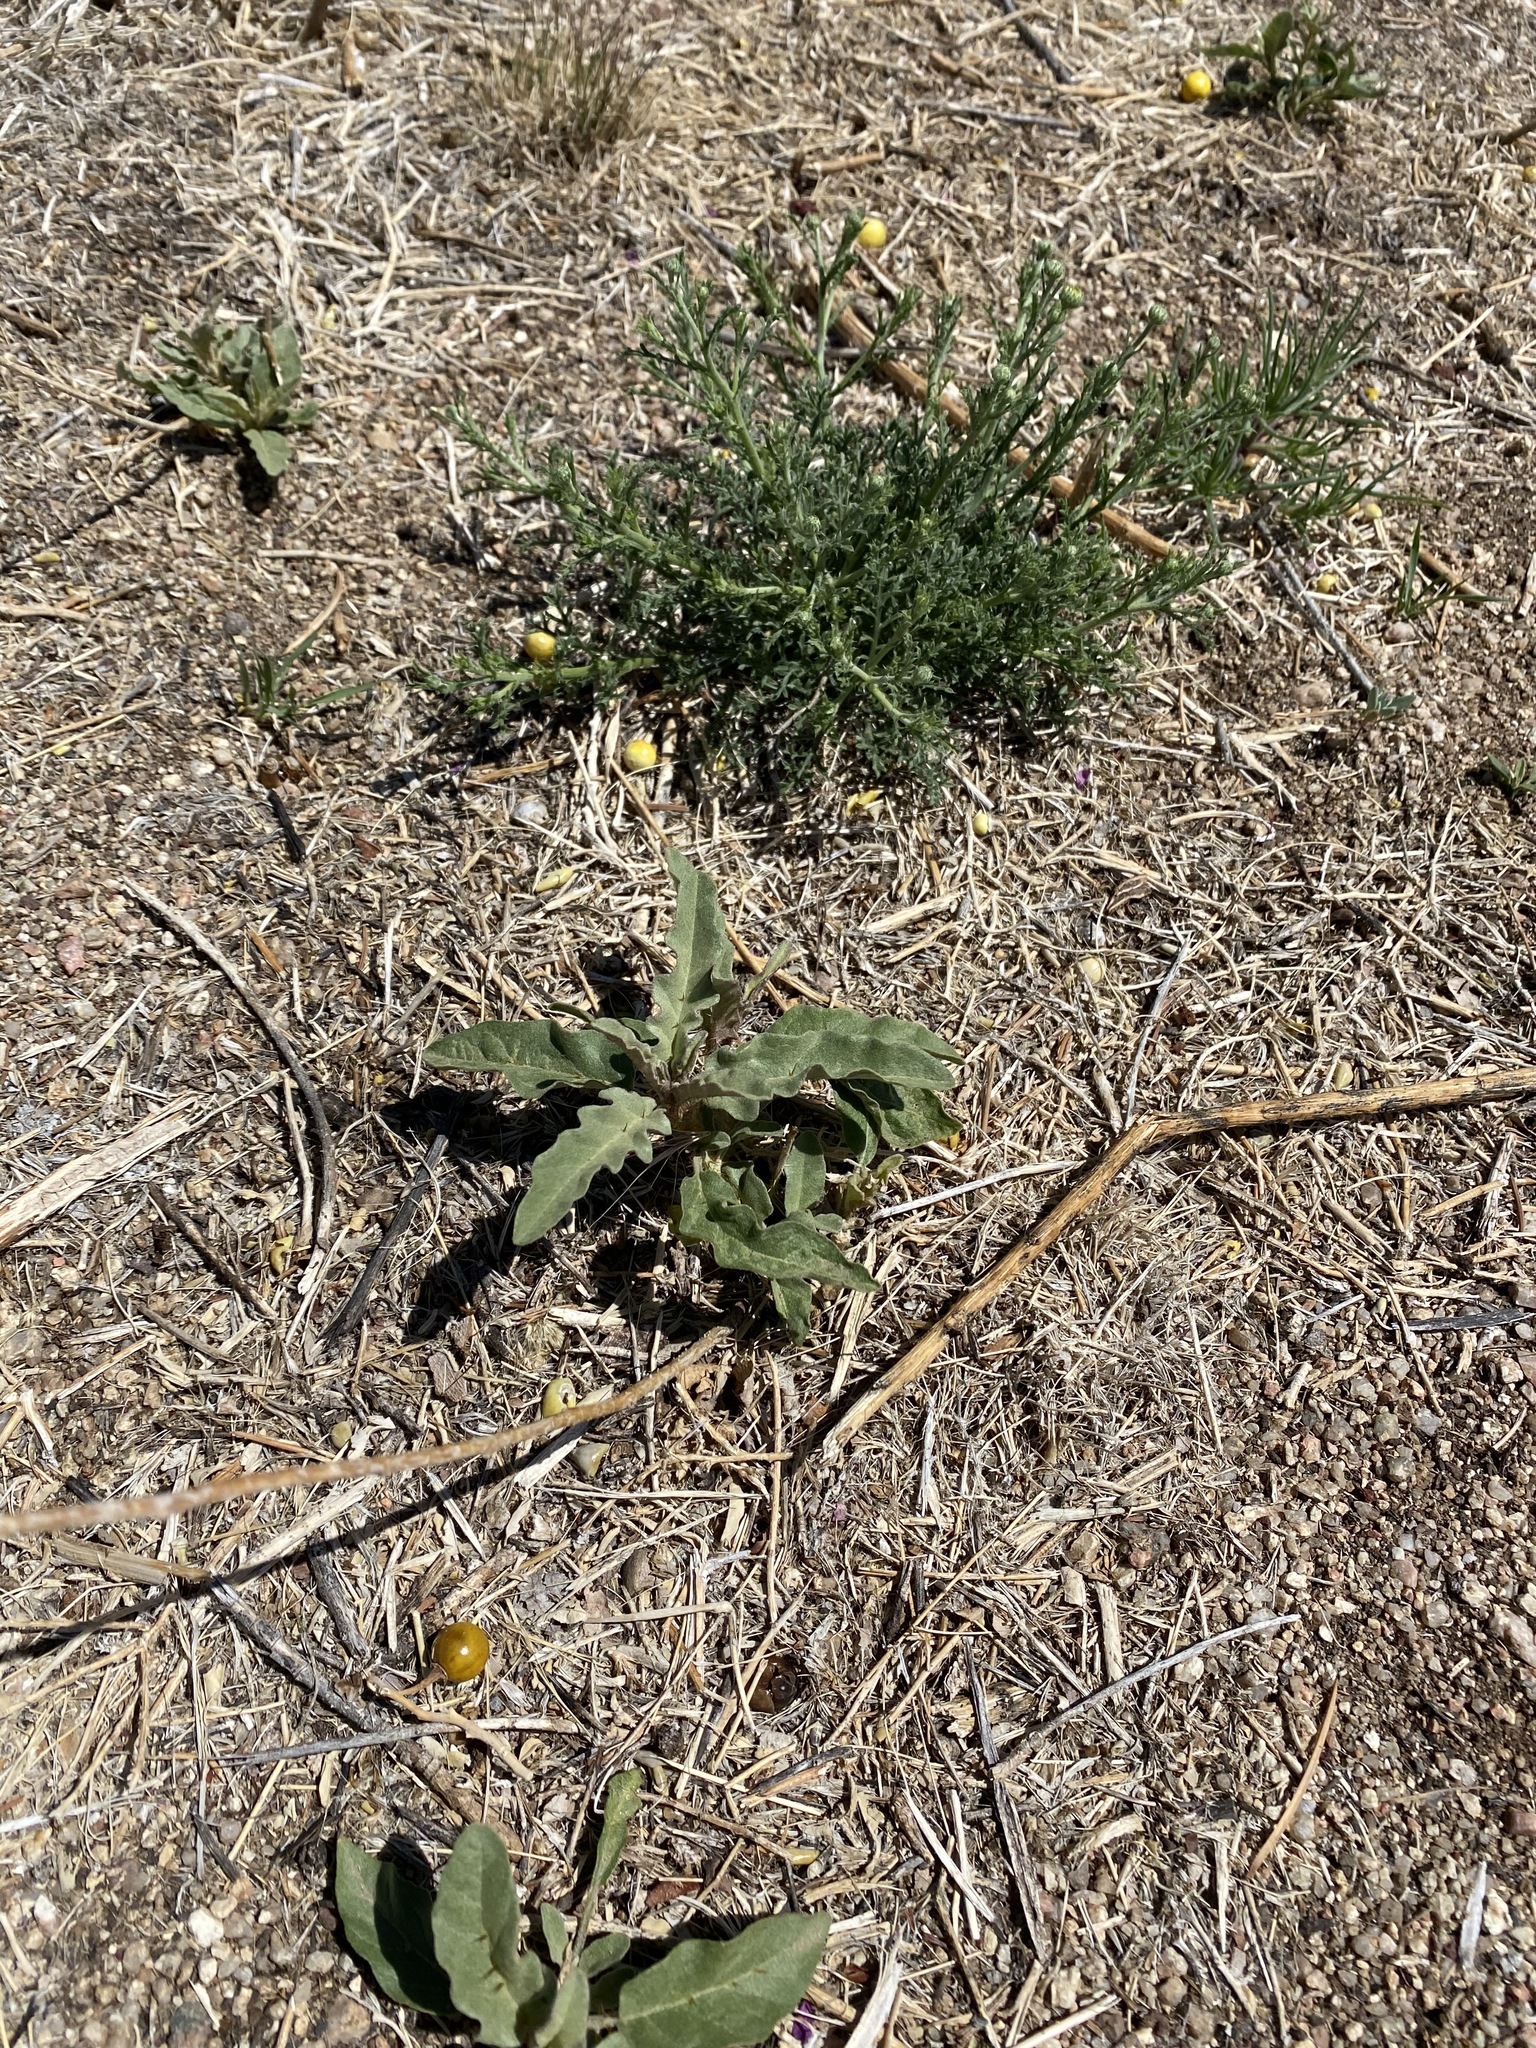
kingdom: Plantae
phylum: Tracheophyta
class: Magnoliopsida
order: Solanales
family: Solanaceae
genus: Solanum
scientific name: Solanum elaeagnifolium
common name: Silverleaf nightshade
